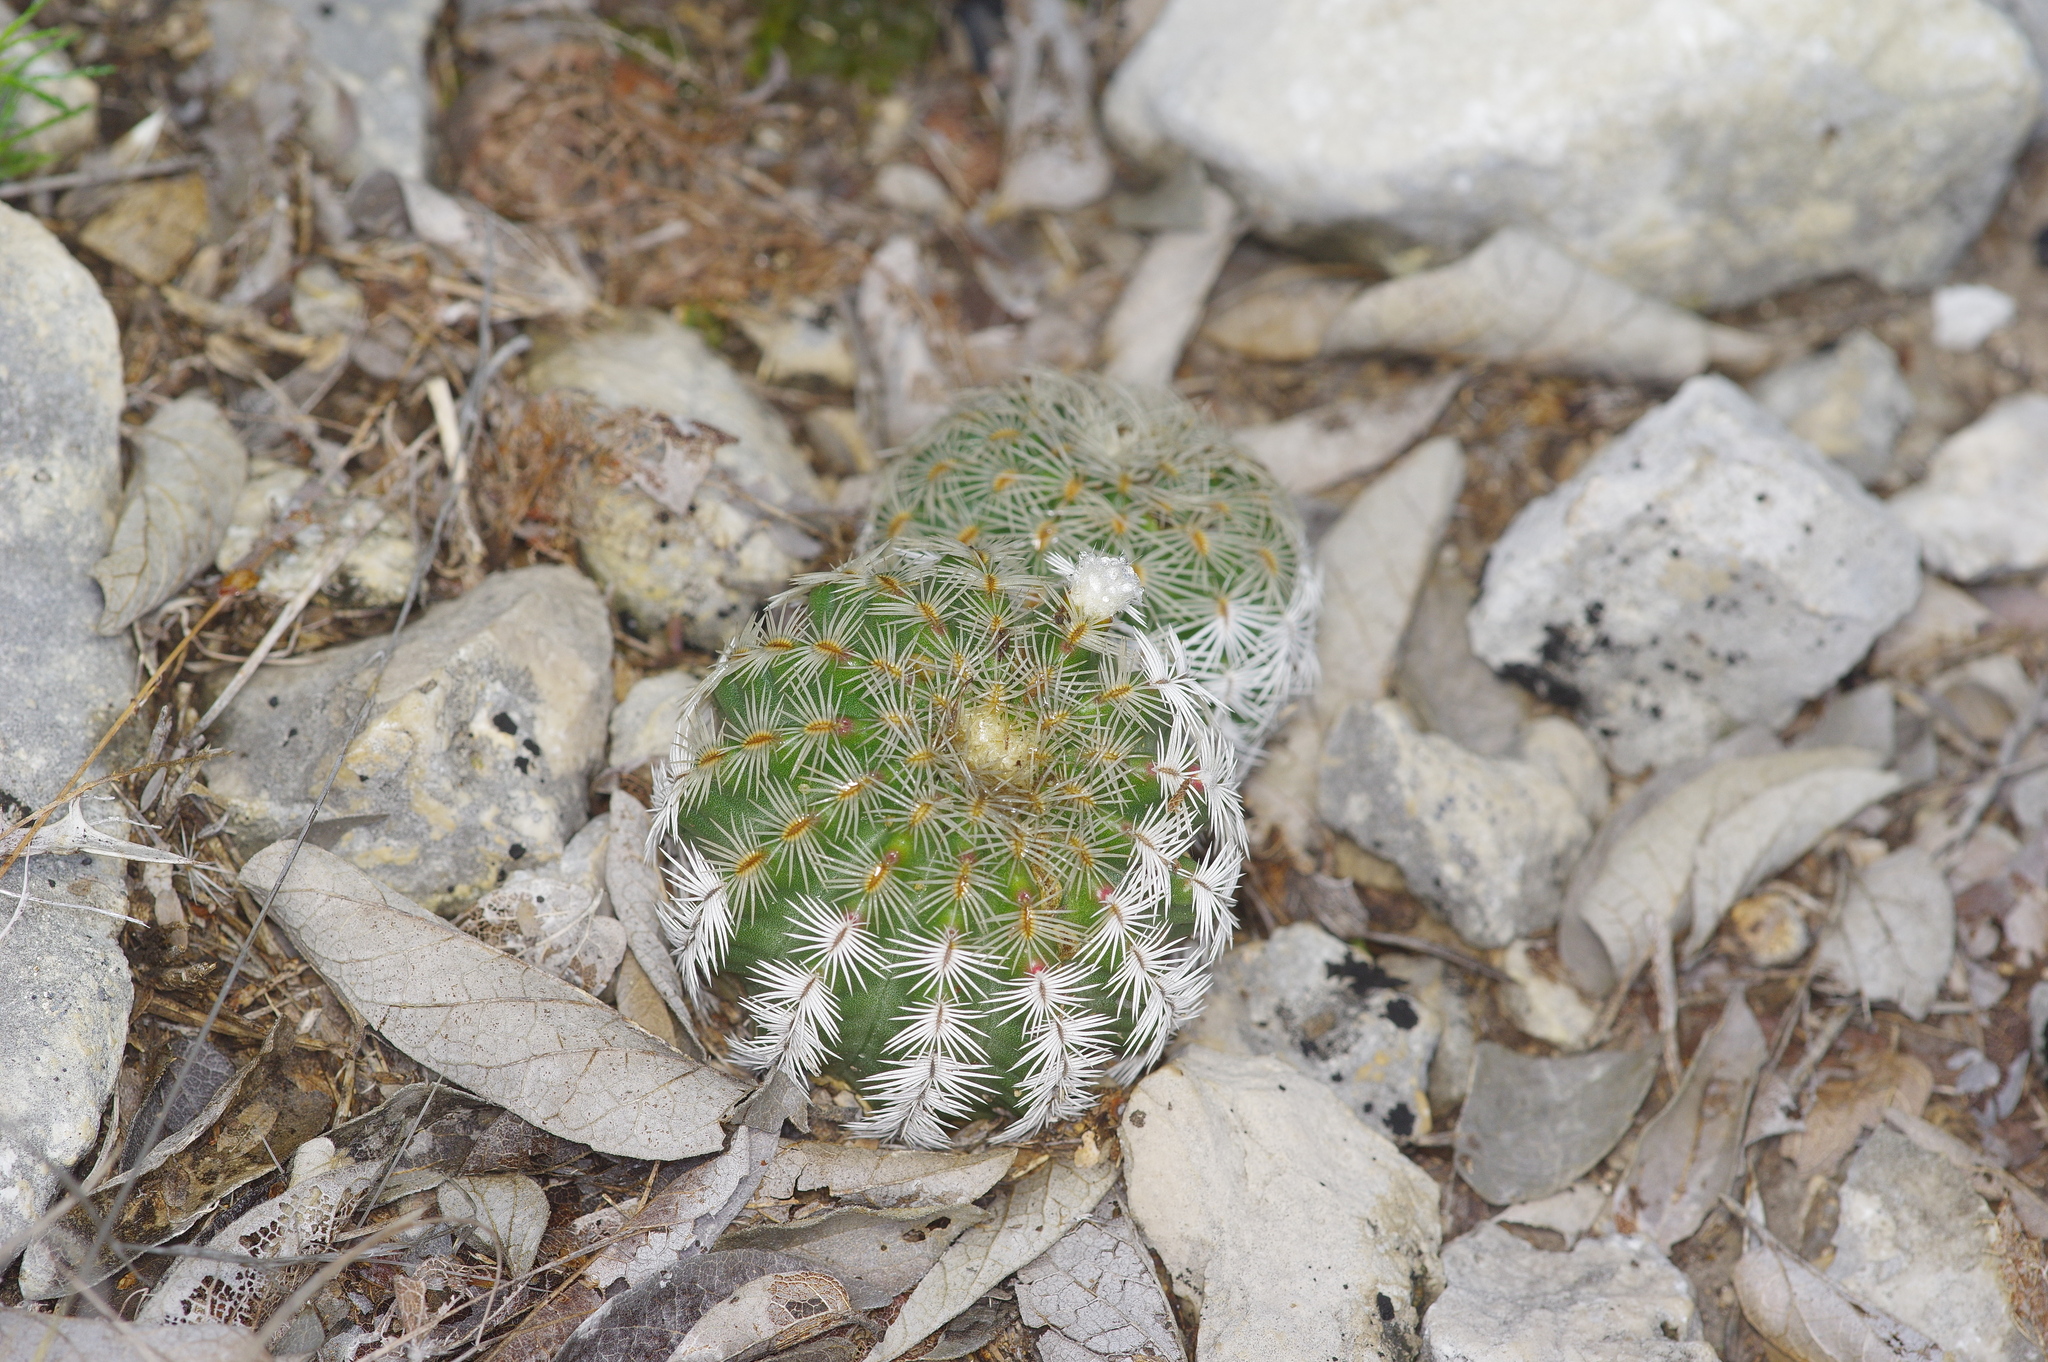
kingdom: Plantae
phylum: Tracheophyta
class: Magnoliopsida
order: Caryophyllales
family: Cactaceae
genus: Echinocereus
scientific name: Echinocereus reichenbachii
